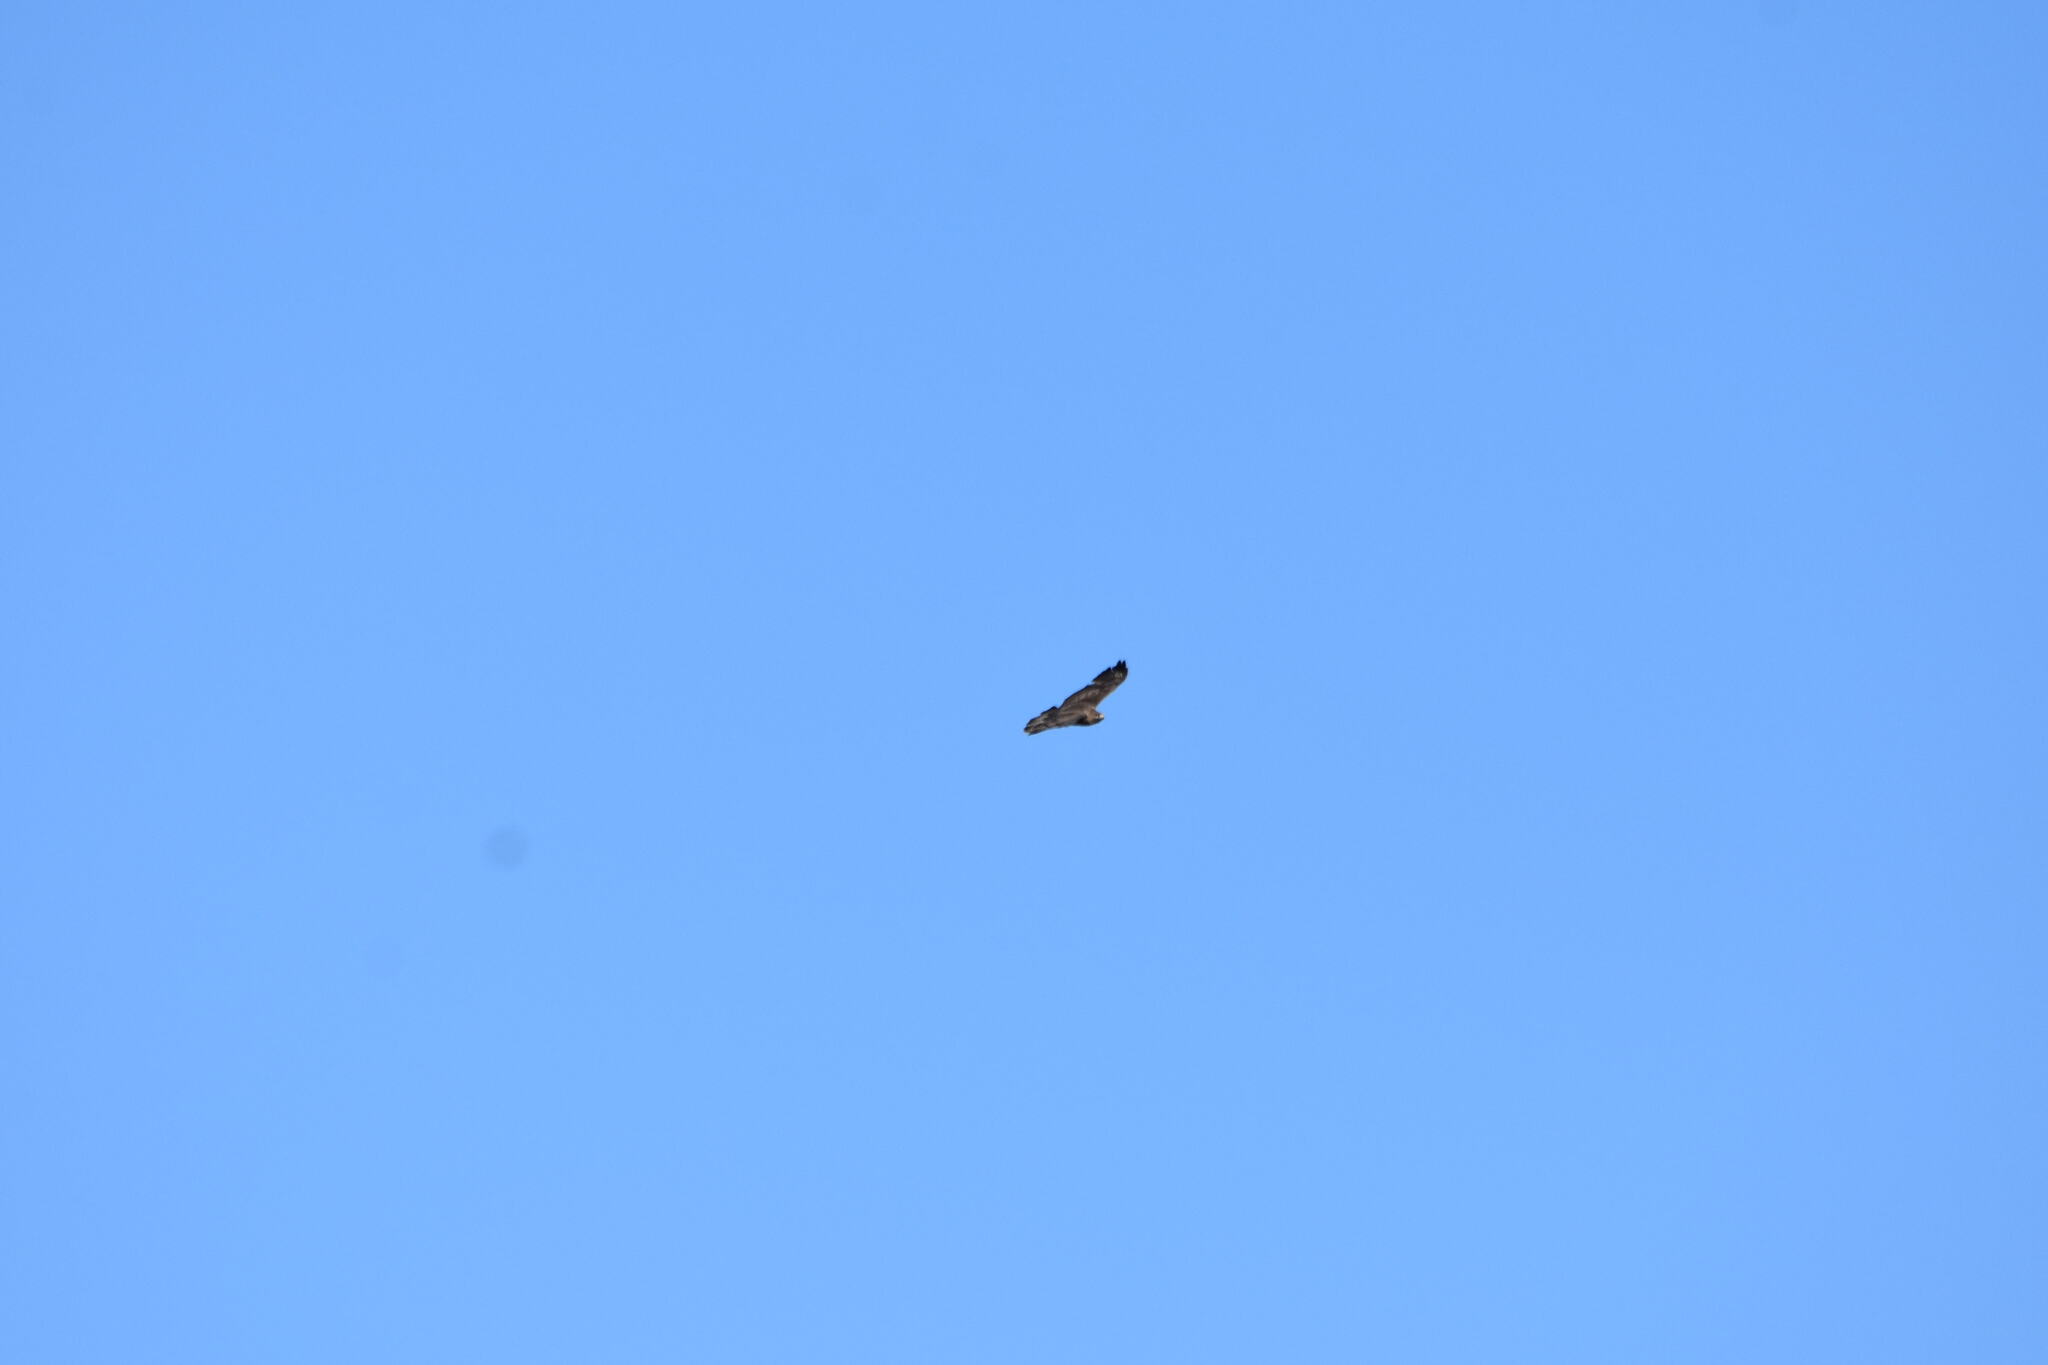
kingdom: Animalia
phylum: Chordata
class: Aves
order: Accipitriformes
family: Accipitridae
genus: Buteo
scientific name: Buteo buteo
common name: Common buzzard
